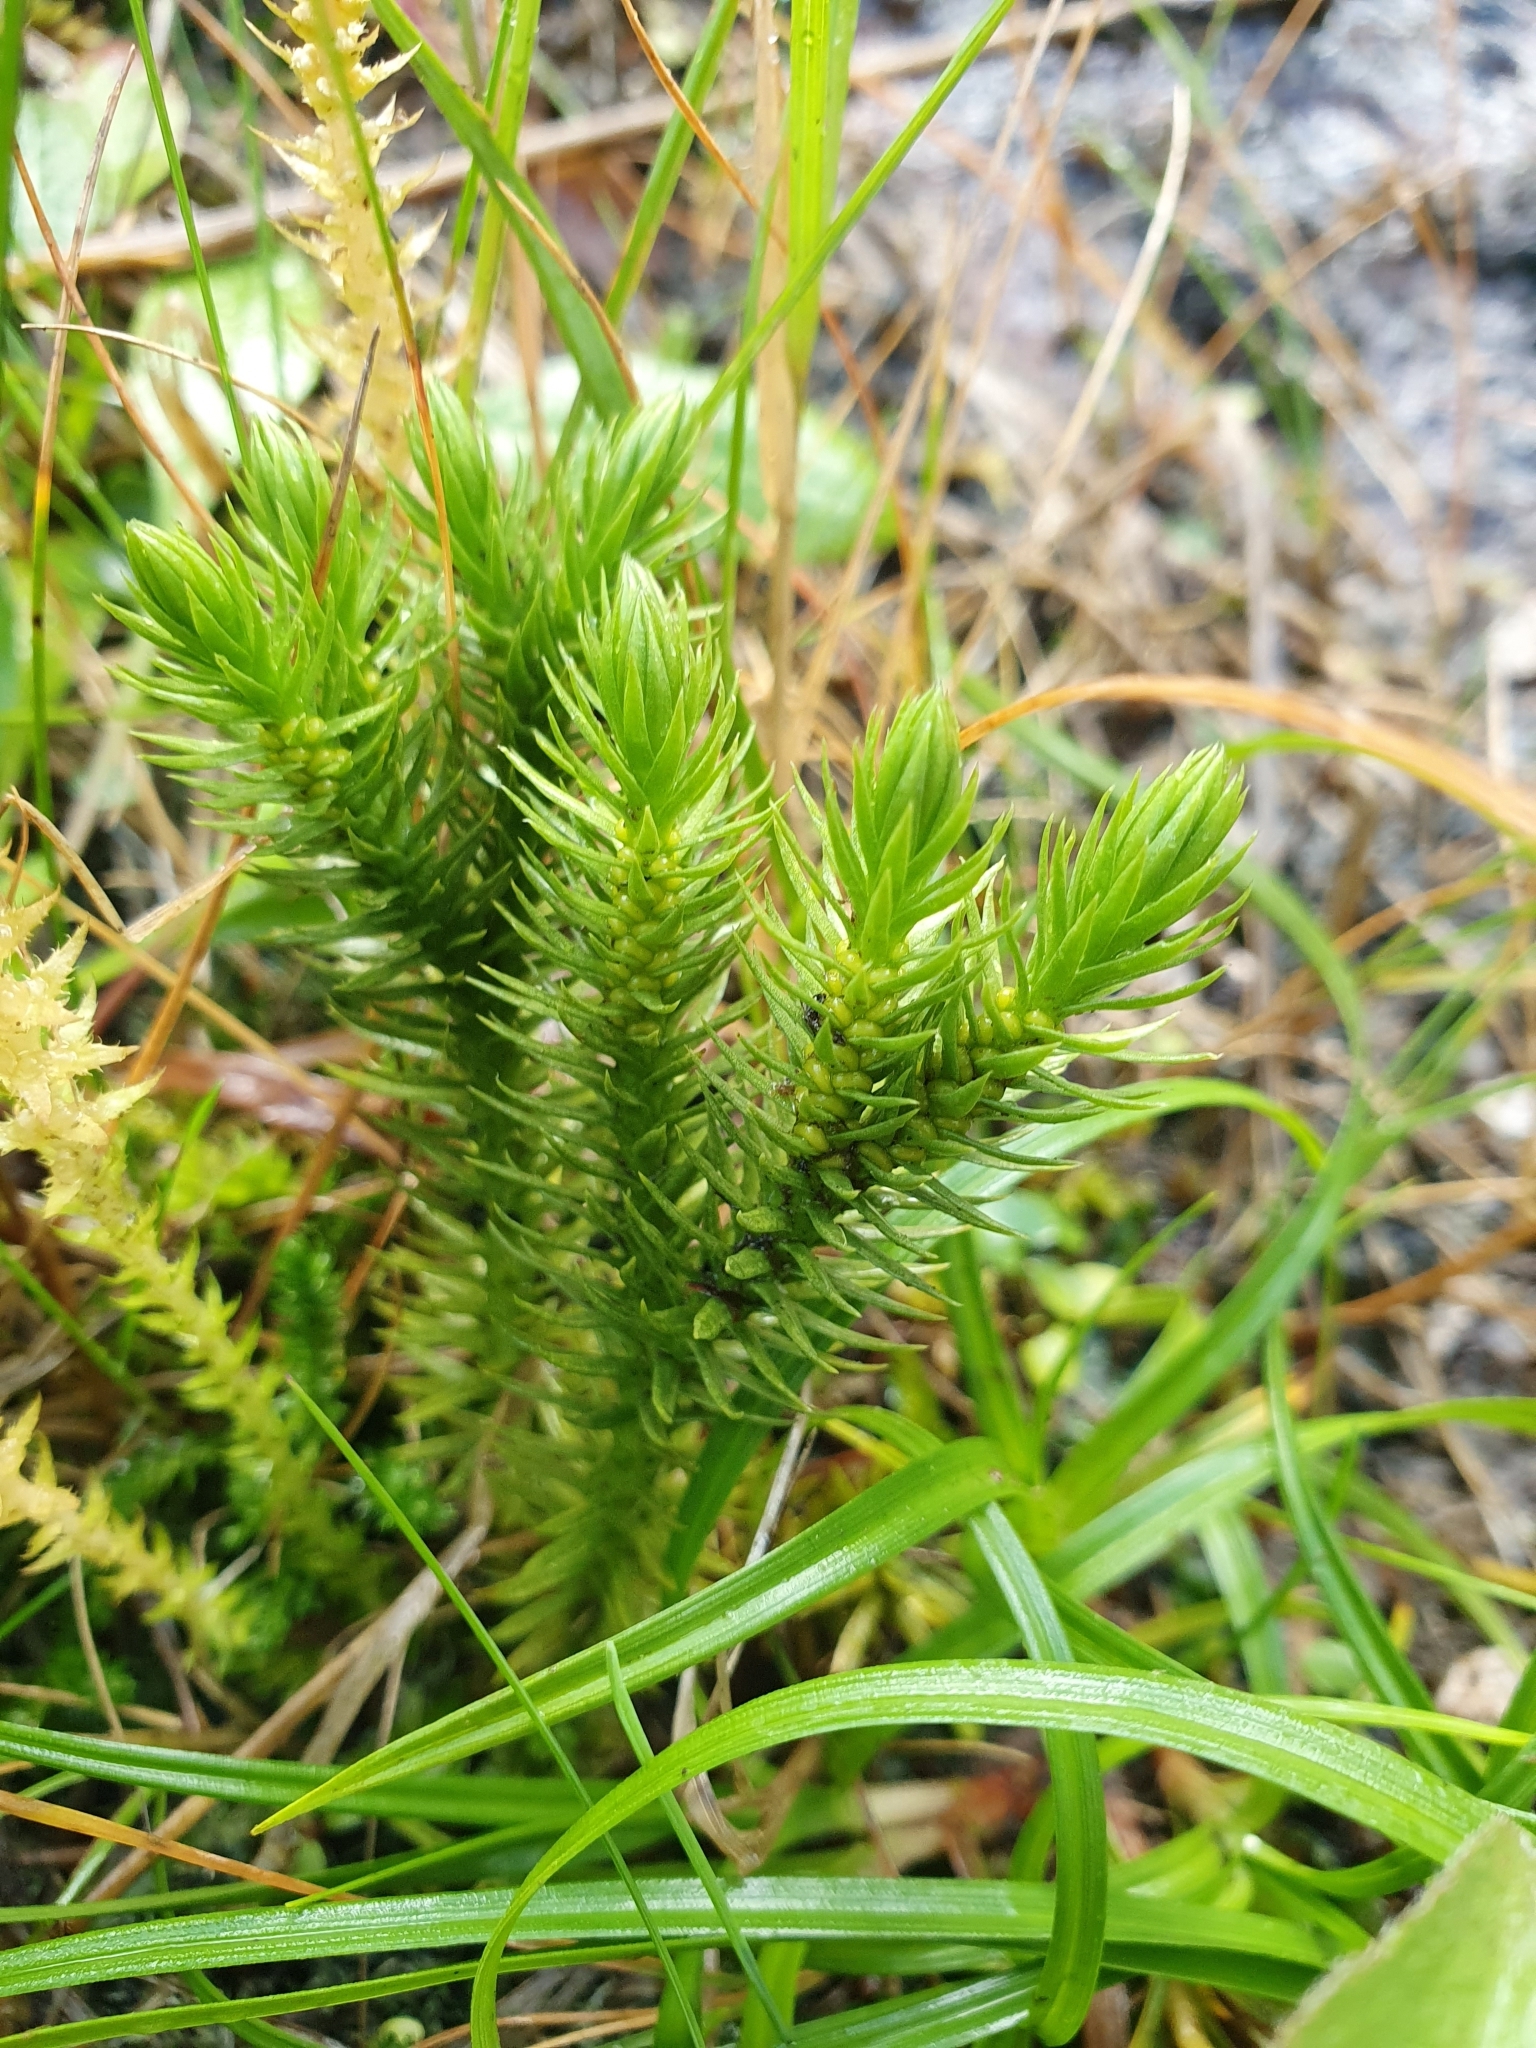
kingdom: Plantae
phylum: Tracheophyta
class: Lycopodiopsida
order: Lycopodiales
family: Lycopodiaceae
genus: Huperzia
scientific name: Huperzia selago
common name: Northern firmoss
